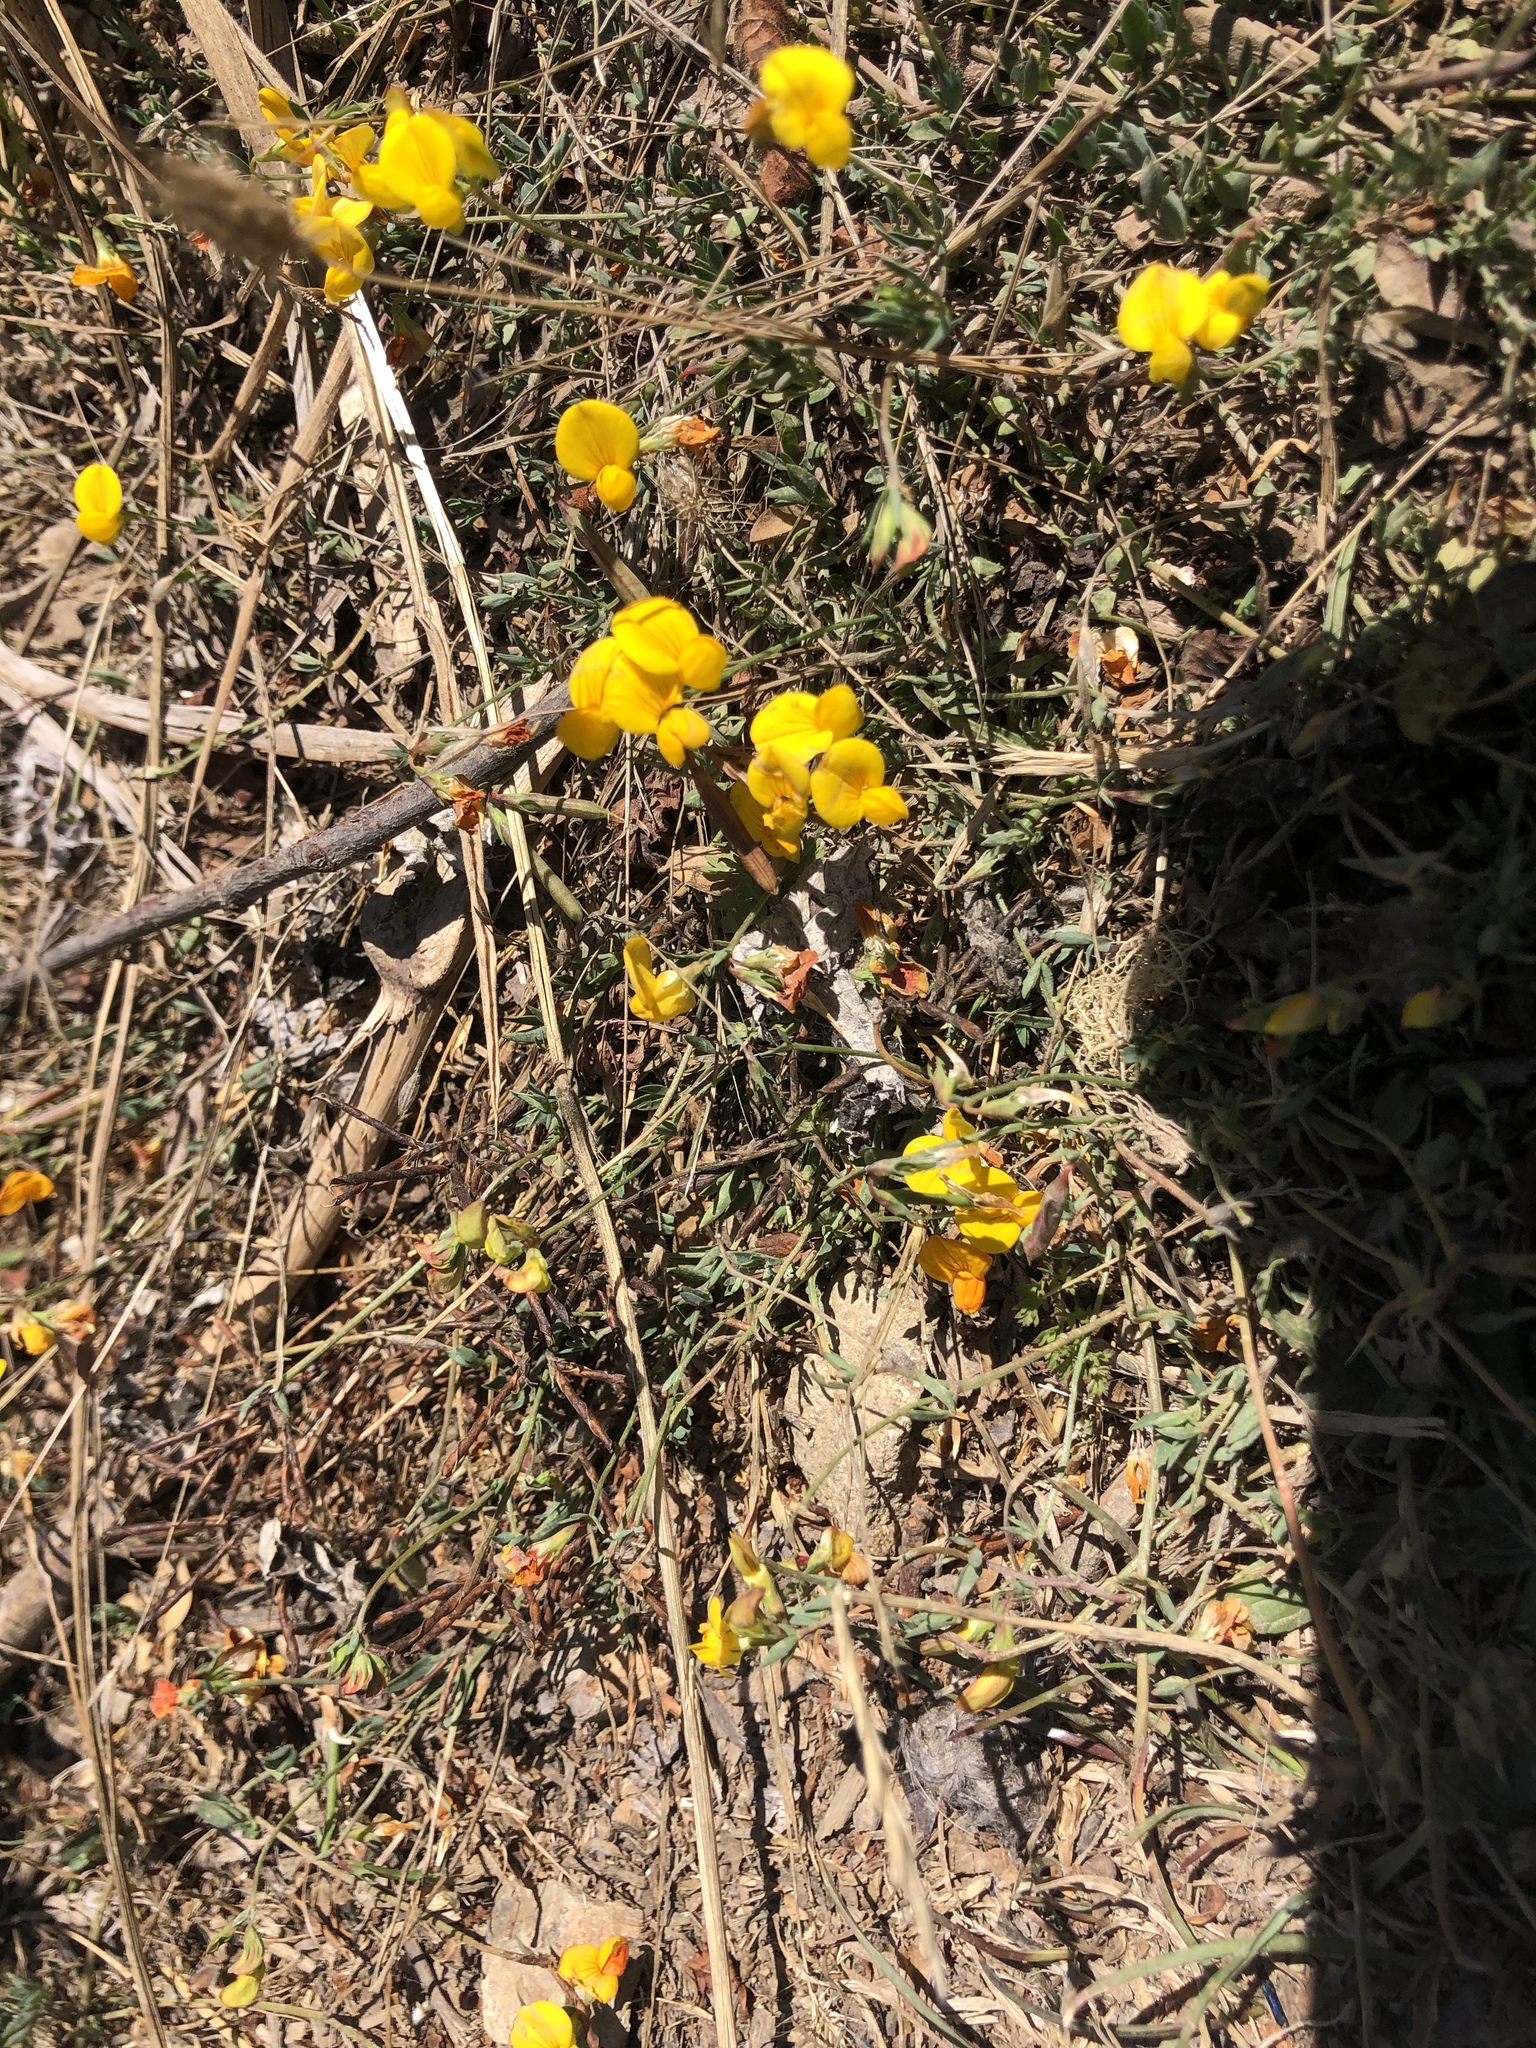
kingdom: Plantae
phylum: Tracheophyta
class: Magnoliopsida
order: Fabales
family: Fabaceae
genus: Lotus
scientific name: Lotus corniculatus
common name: Common bird's-foot-trefoil
